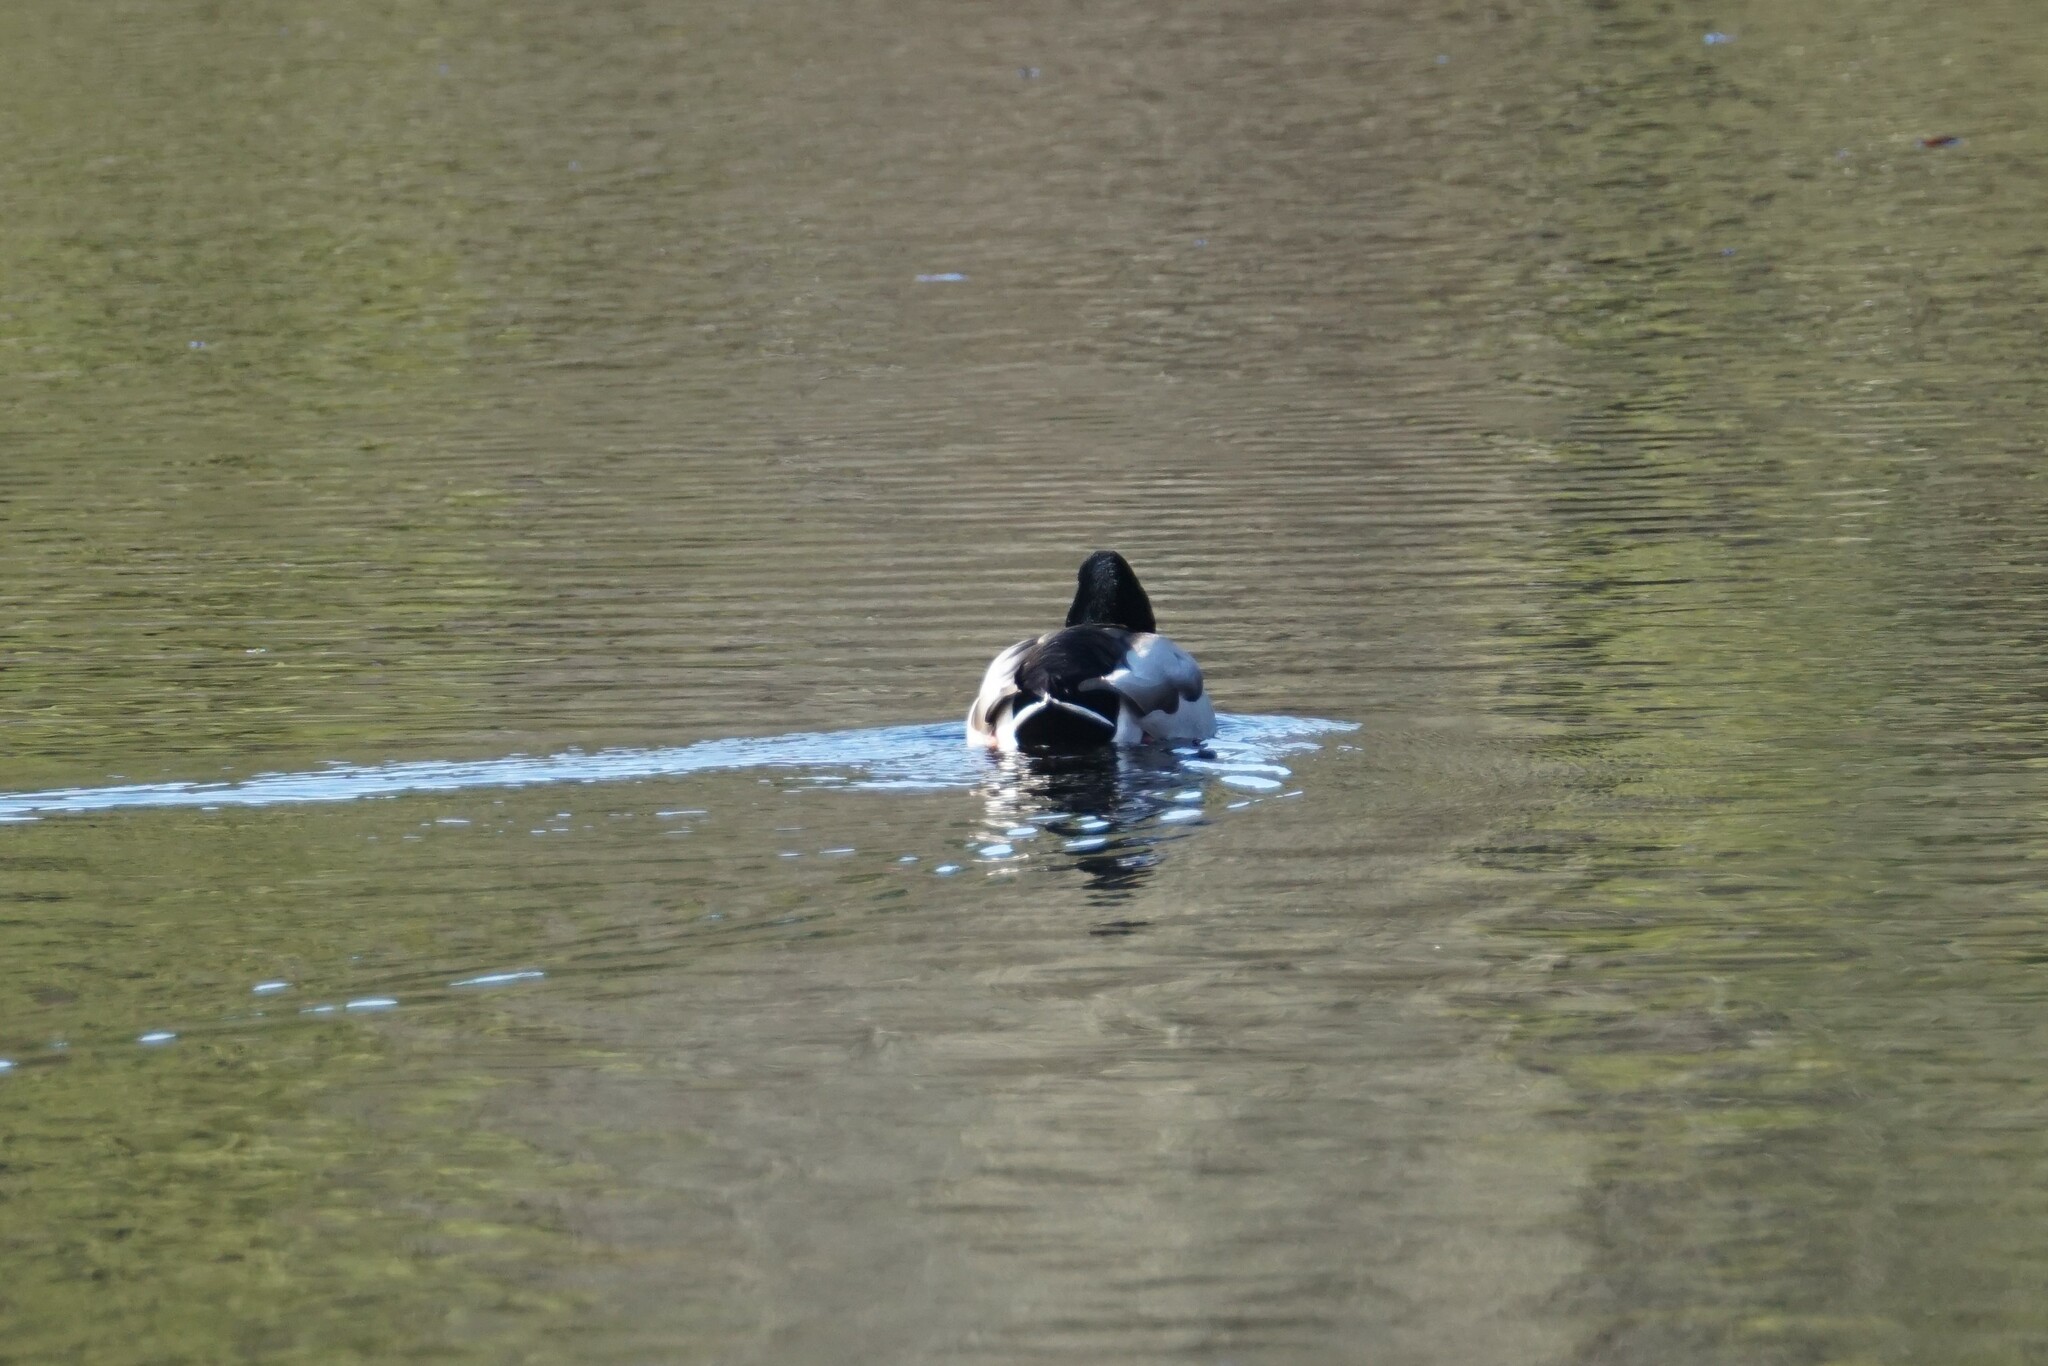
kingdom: Animalia
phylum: Chordata
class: Aves
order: Anseriformes
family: Anatidae
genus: Anas
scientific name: Anas platyrhynchos
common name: Mallard
